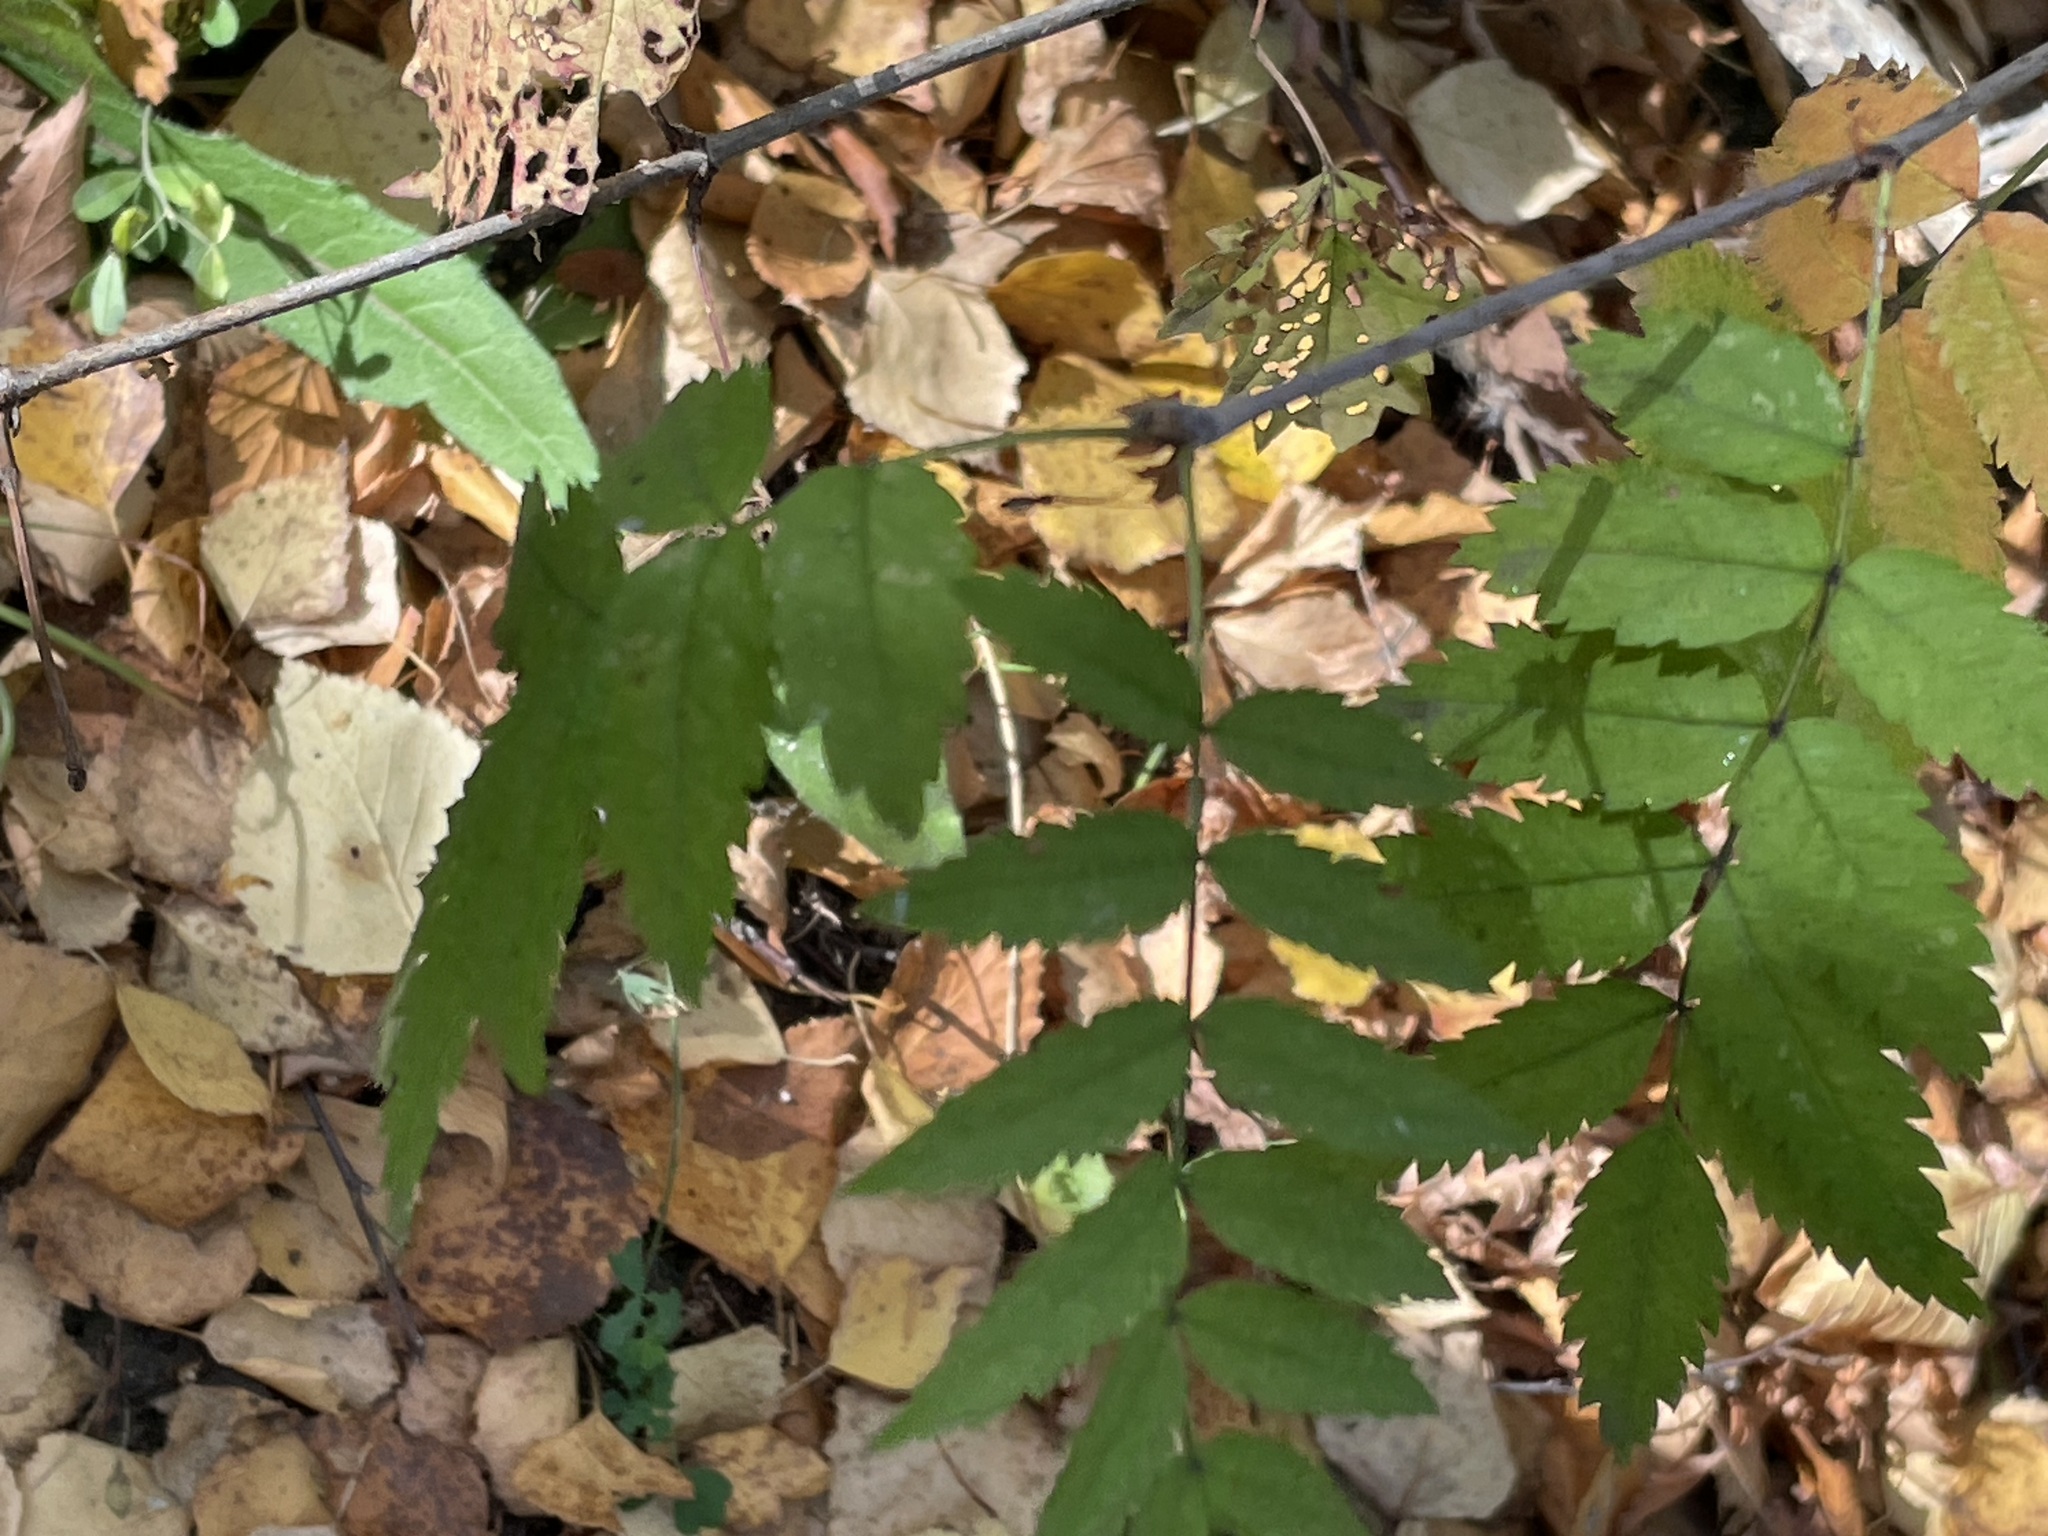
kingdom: Plantae
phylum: Tracheophyta
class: Magnoliopsida
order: Rosales
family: Rosaceae
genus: Sorbus
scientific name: Sorbus aucuparia
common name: Rowan
